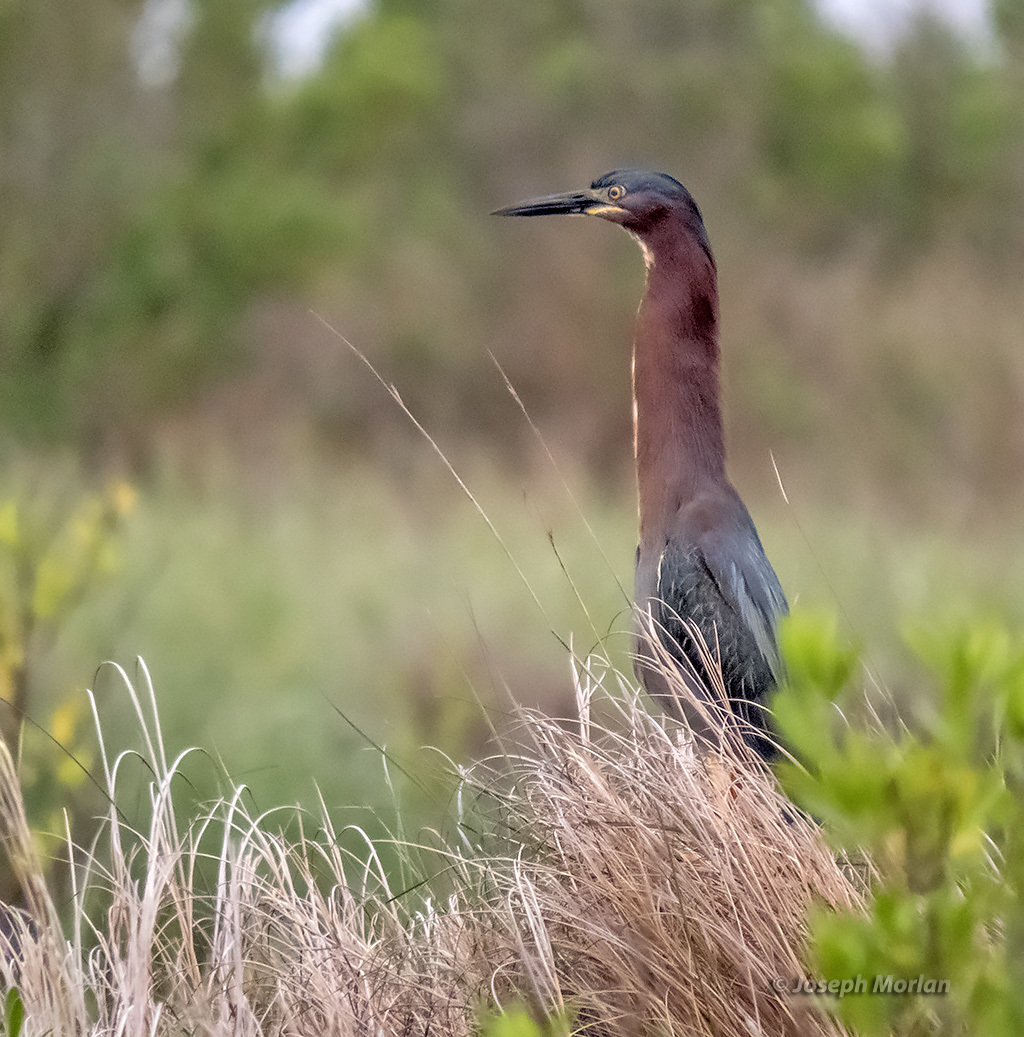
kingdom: Animalia
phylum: Chordata
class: Aves
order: Pelecaniformes
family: Ardeidae
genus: Butorides
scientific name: Butorides virescens
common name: Green heron
